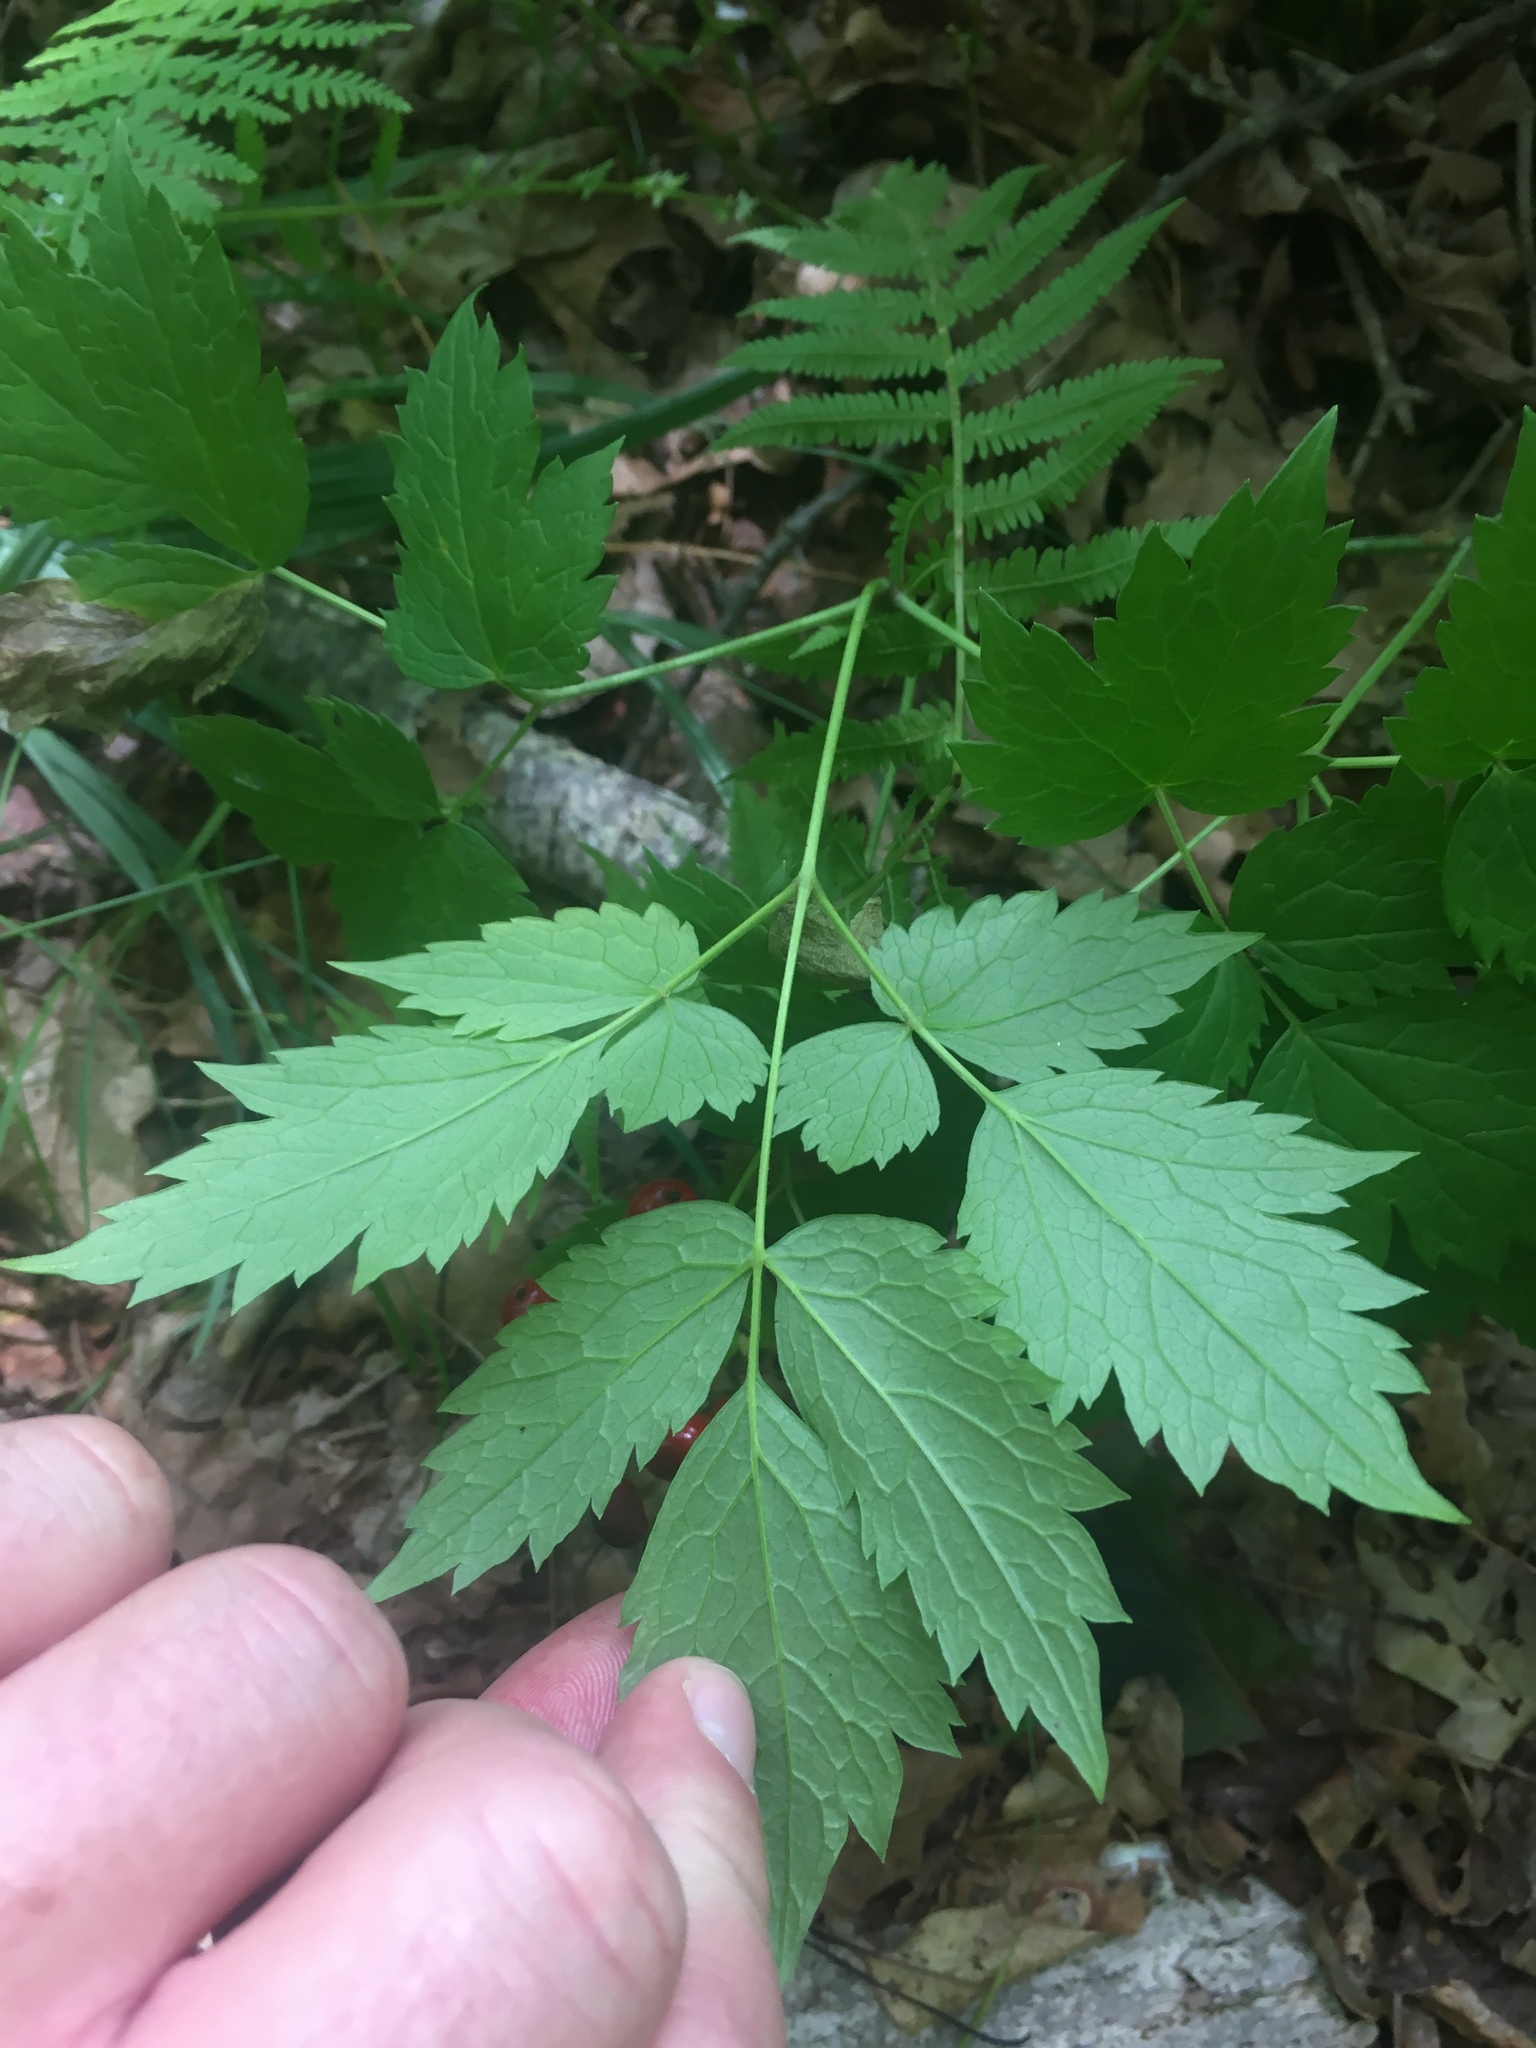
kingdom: Plantae
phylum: Tracheophyta
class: Magnoliopsida
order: Ranunculales
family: Ranunculaceae
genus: Actaea
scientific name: Actaea rubra
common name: Red baneberry
